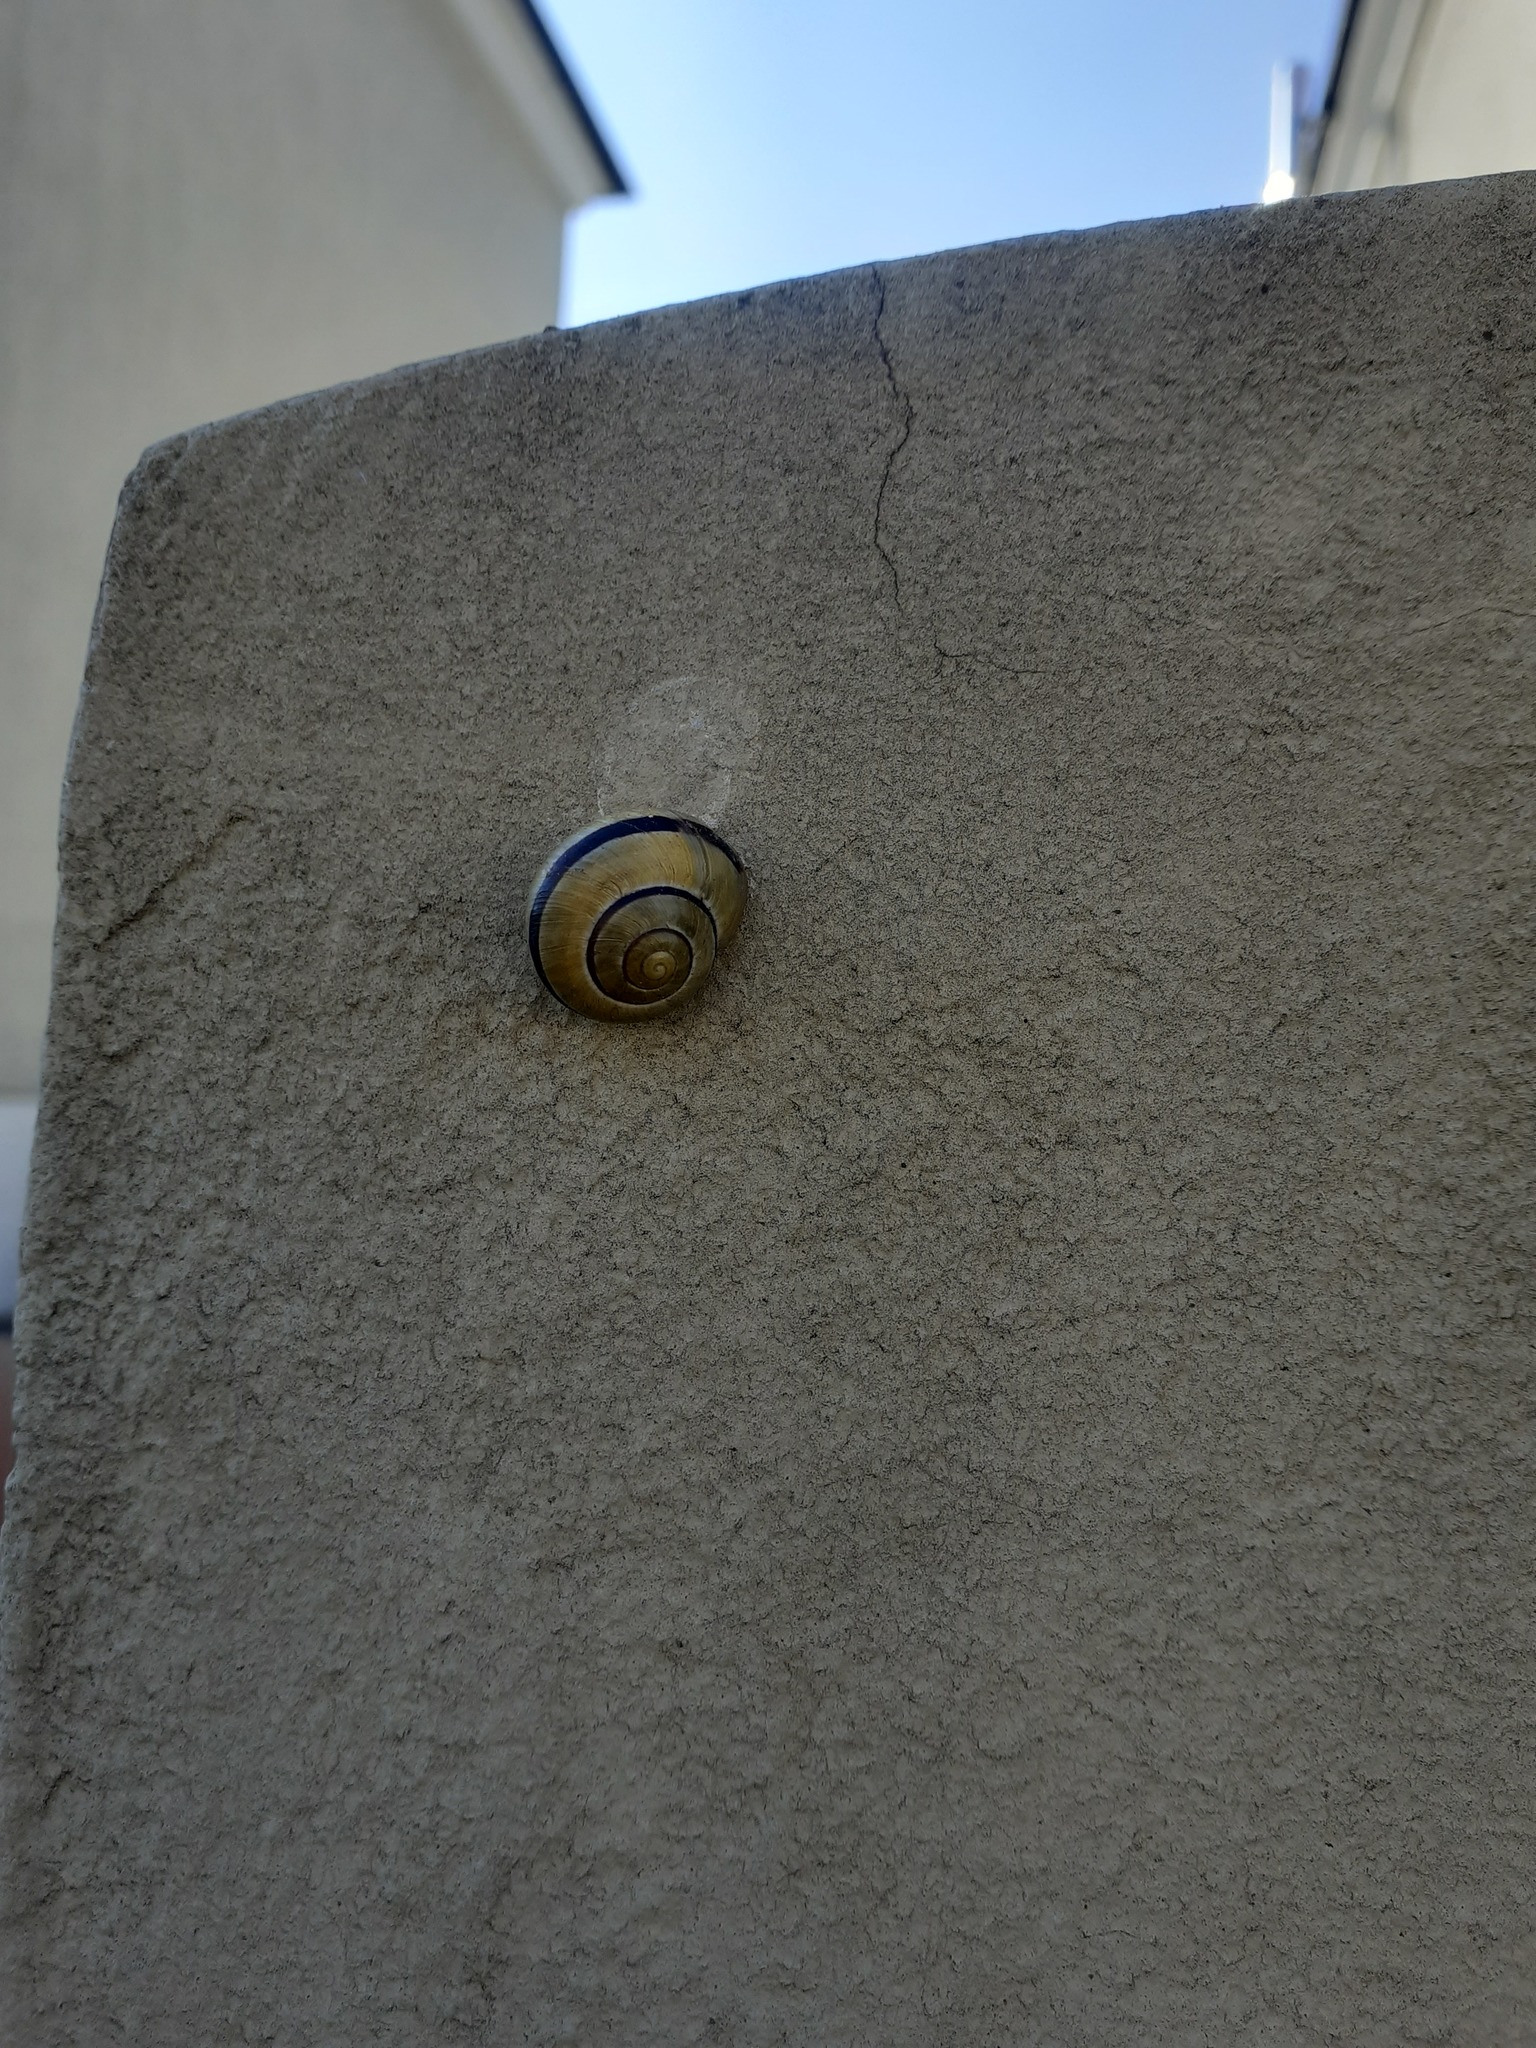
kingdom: Animalia
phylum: Mollusca
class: Gastropoda
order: Stylommatophora
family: Helicidae
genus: Cepaea
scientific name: Cepaea
